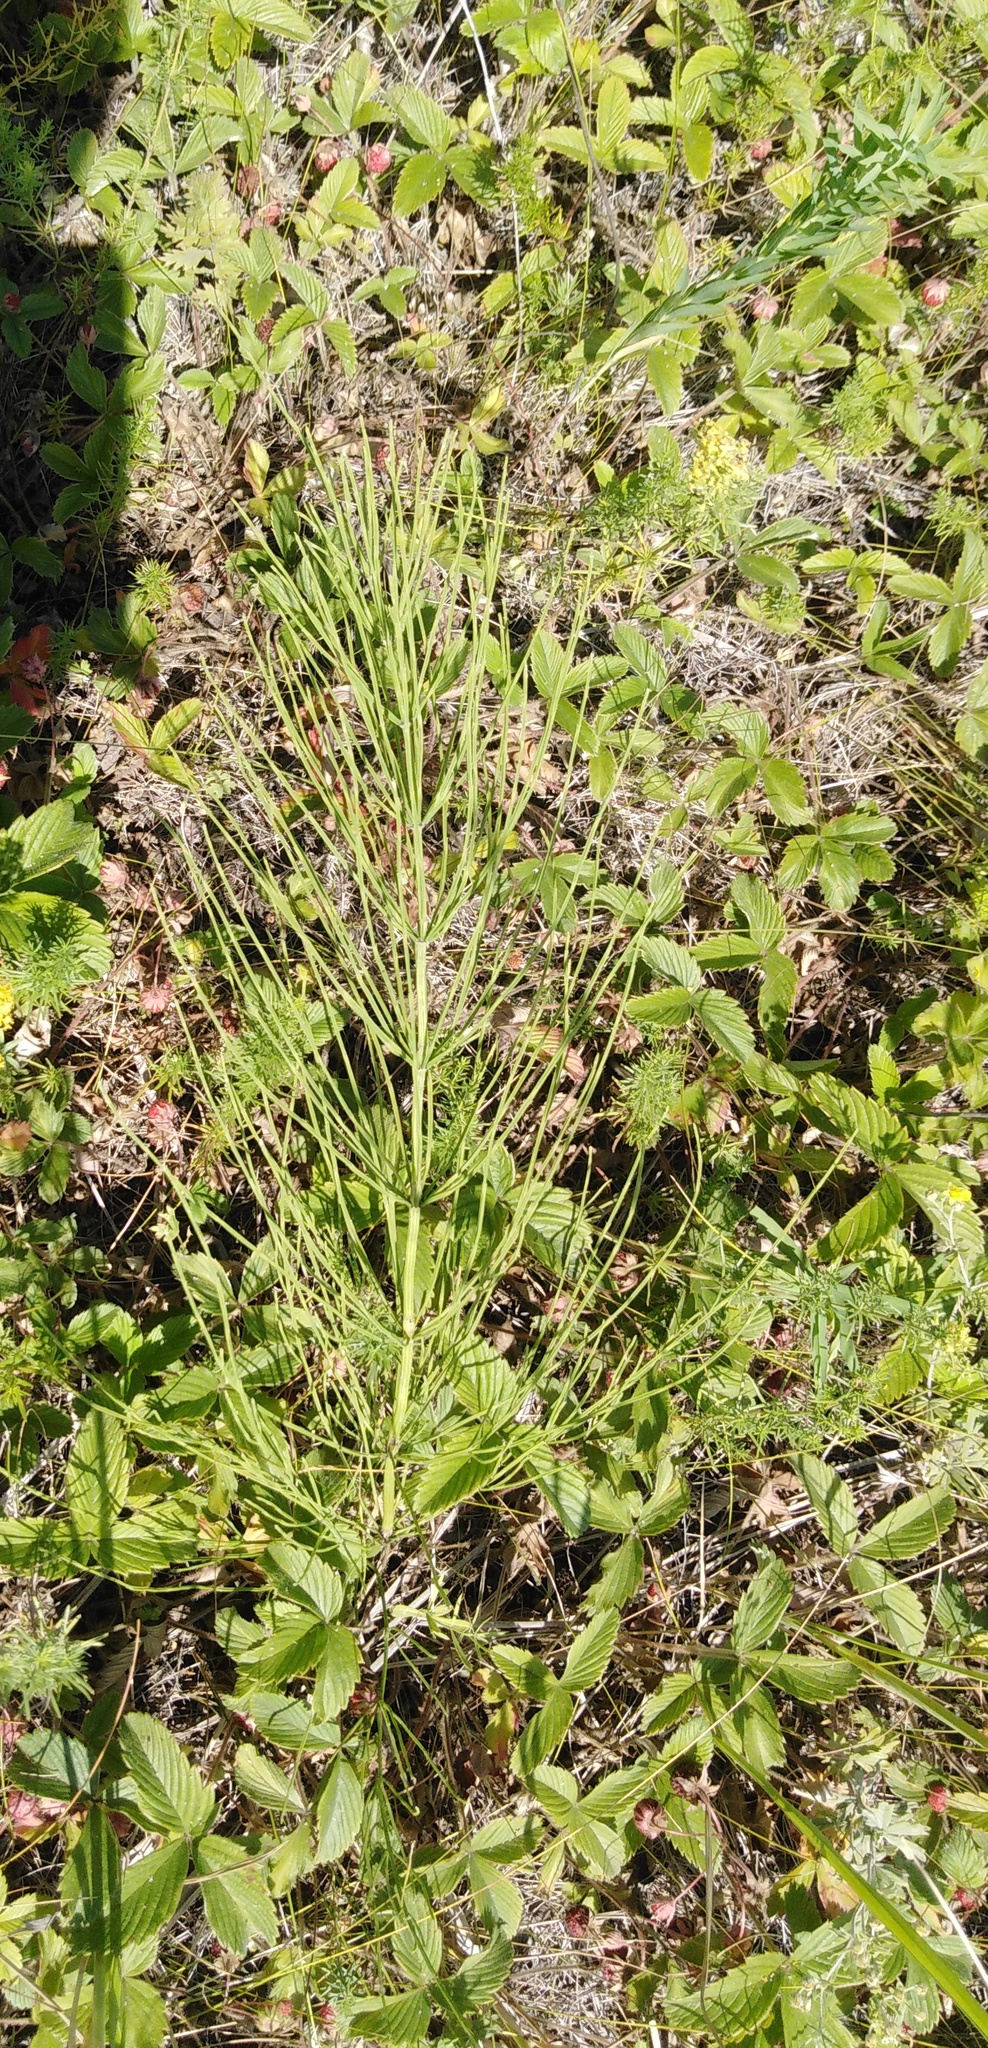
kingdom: Plantae
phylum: Tracheophyta
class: Polypodiopsida
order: Equisetales
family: Equisetaceae
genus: Equisetum
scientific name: Equisetum arvense
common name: Field horsetail
